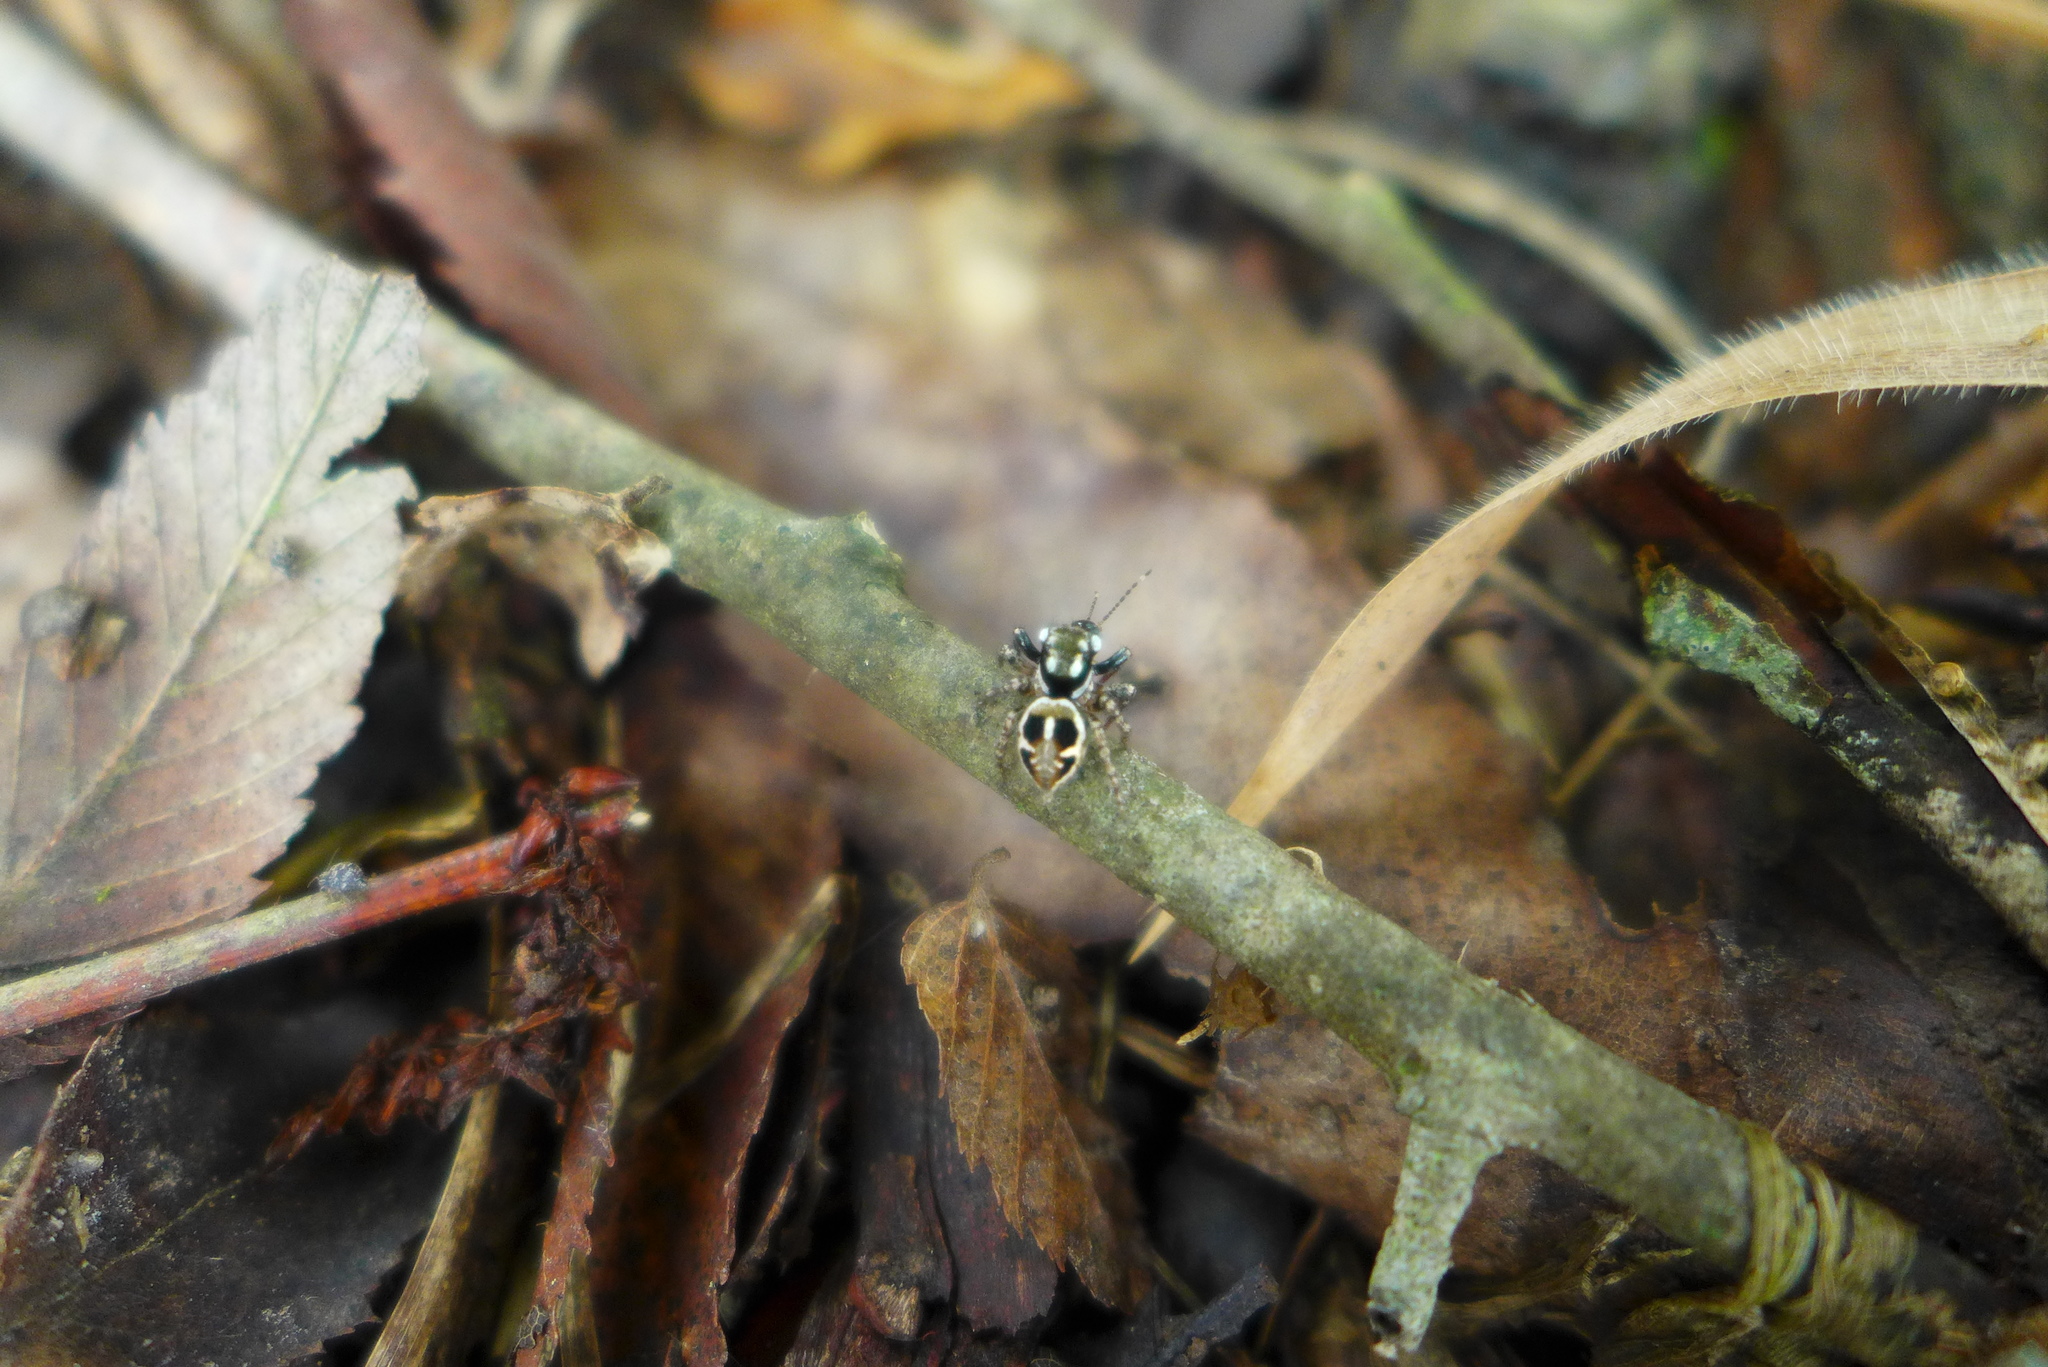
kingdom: Animalia
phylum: Arthropoda
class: Arachnida
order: Araneae
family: Salticidae
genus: Anasaitis
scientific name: Anasaitis canosa
